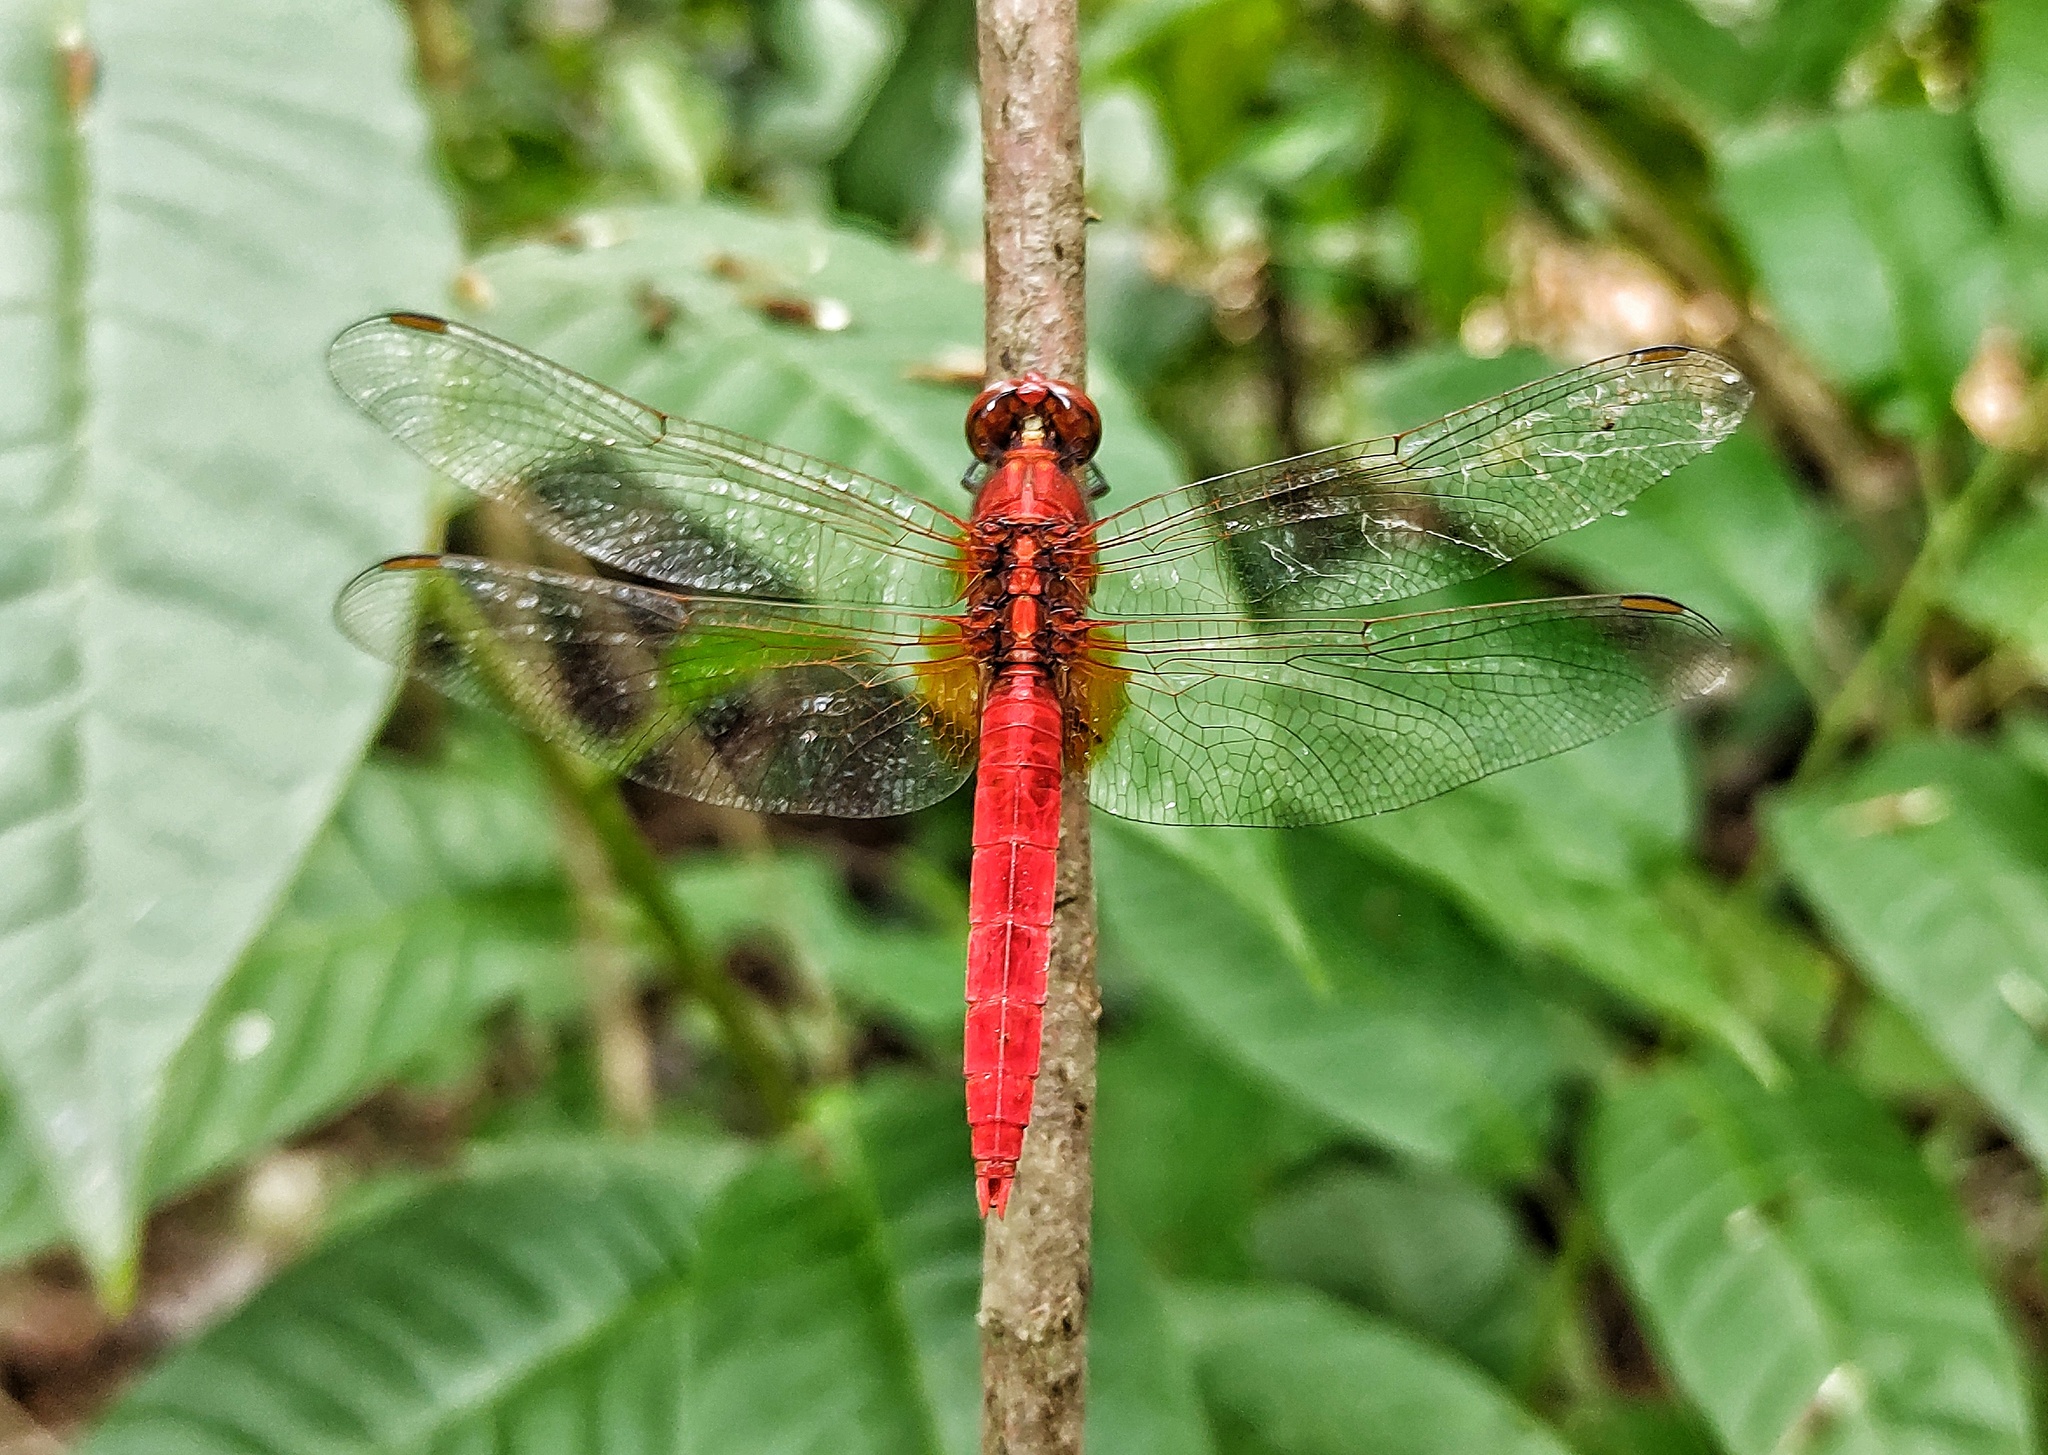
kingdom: Animalia
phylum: Arthropoda
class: Insecta
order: Odonata
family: Libellulidae
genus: Rhodothemis
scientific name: Rhodothemis rufa
